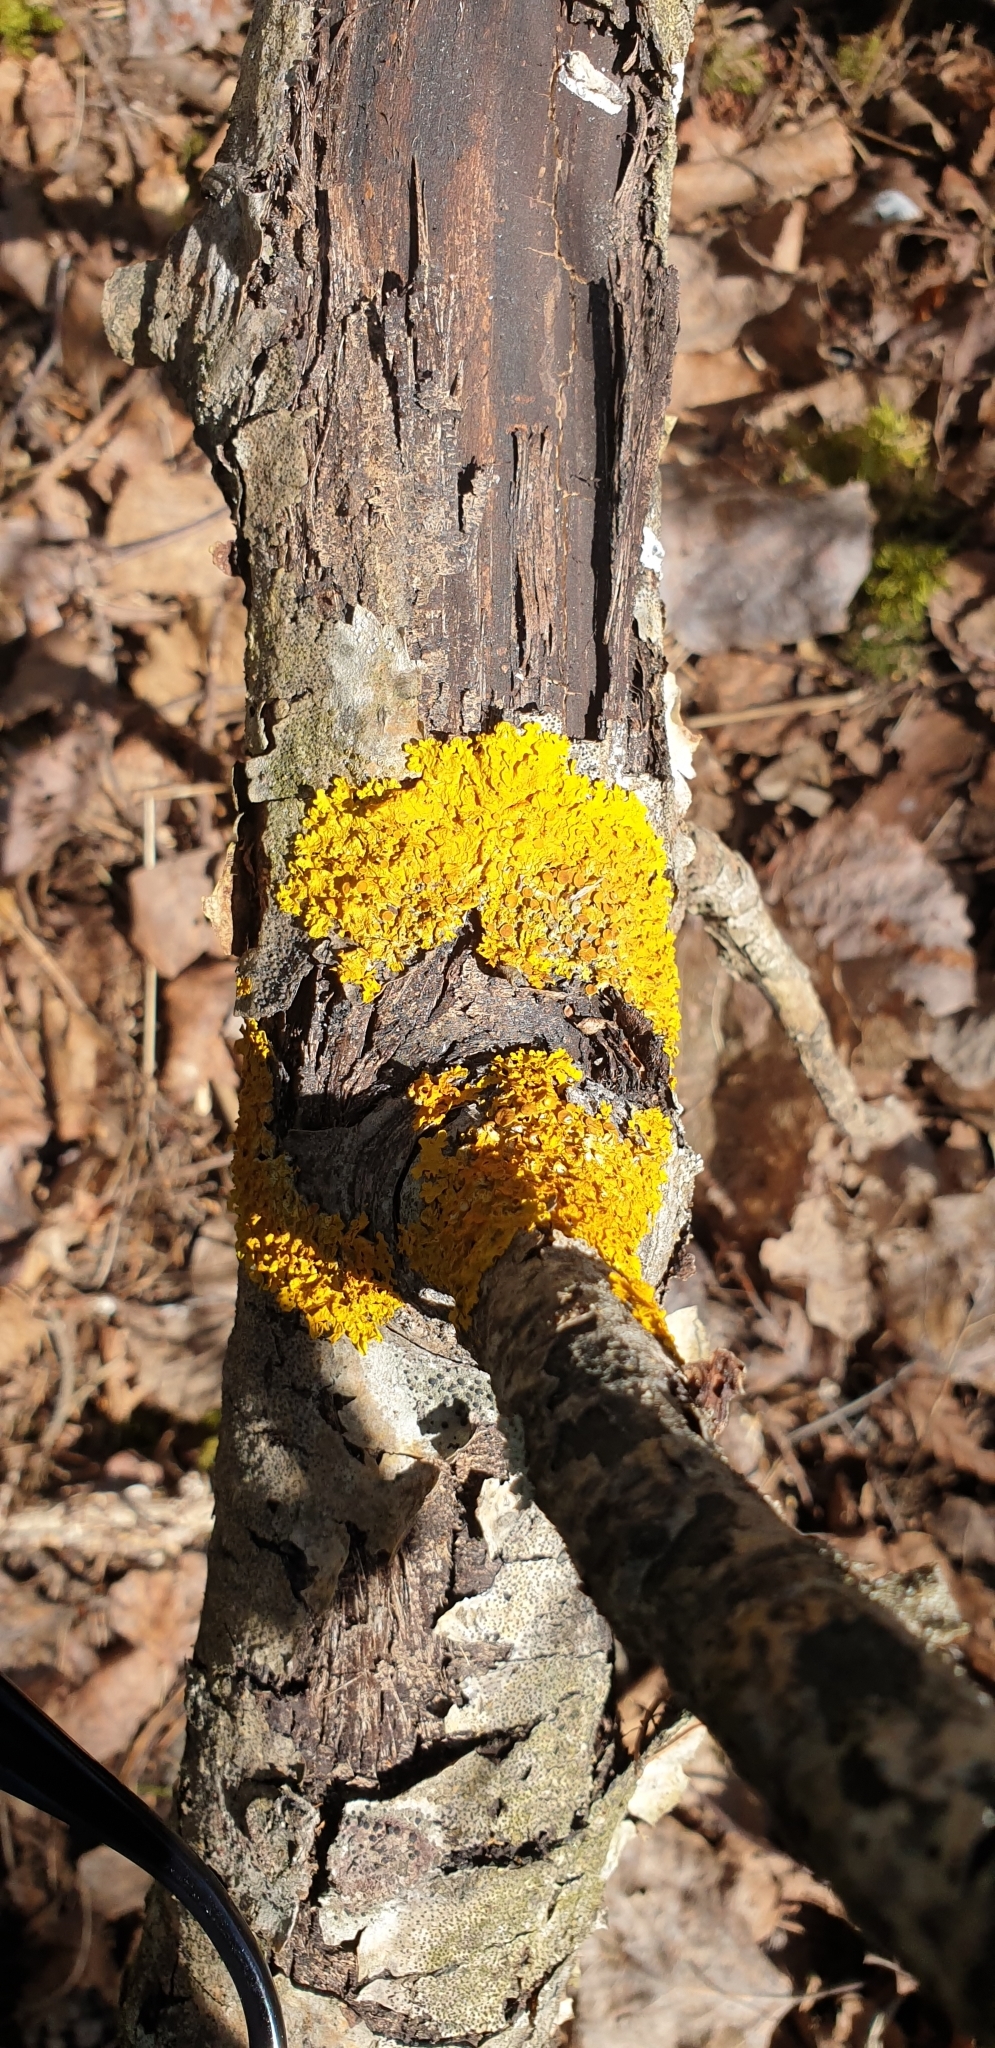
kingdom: Fungi
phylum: Ascomycota
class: Lecanoromycetes
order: Teloschistales
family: Teloschistaceae
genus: Xanthoria
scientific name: Xanthoria parietina
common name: Common orange lichen
